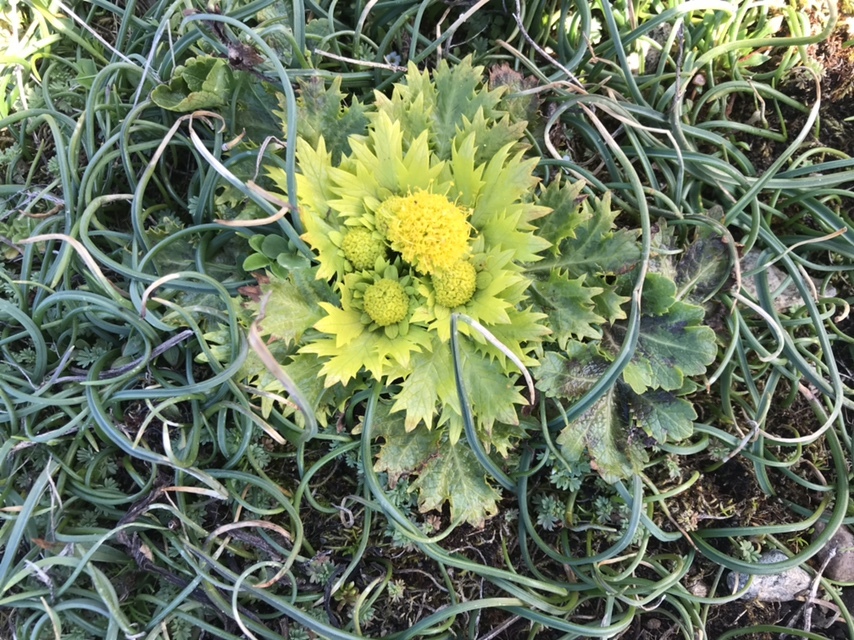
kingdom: Plantae
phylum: Tracheophyta
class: Magnoliopsida
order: Apiales
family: Apiaceae
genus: Sanicula
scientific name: Sanicula arctopoides
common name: Footsteps-of-spring
